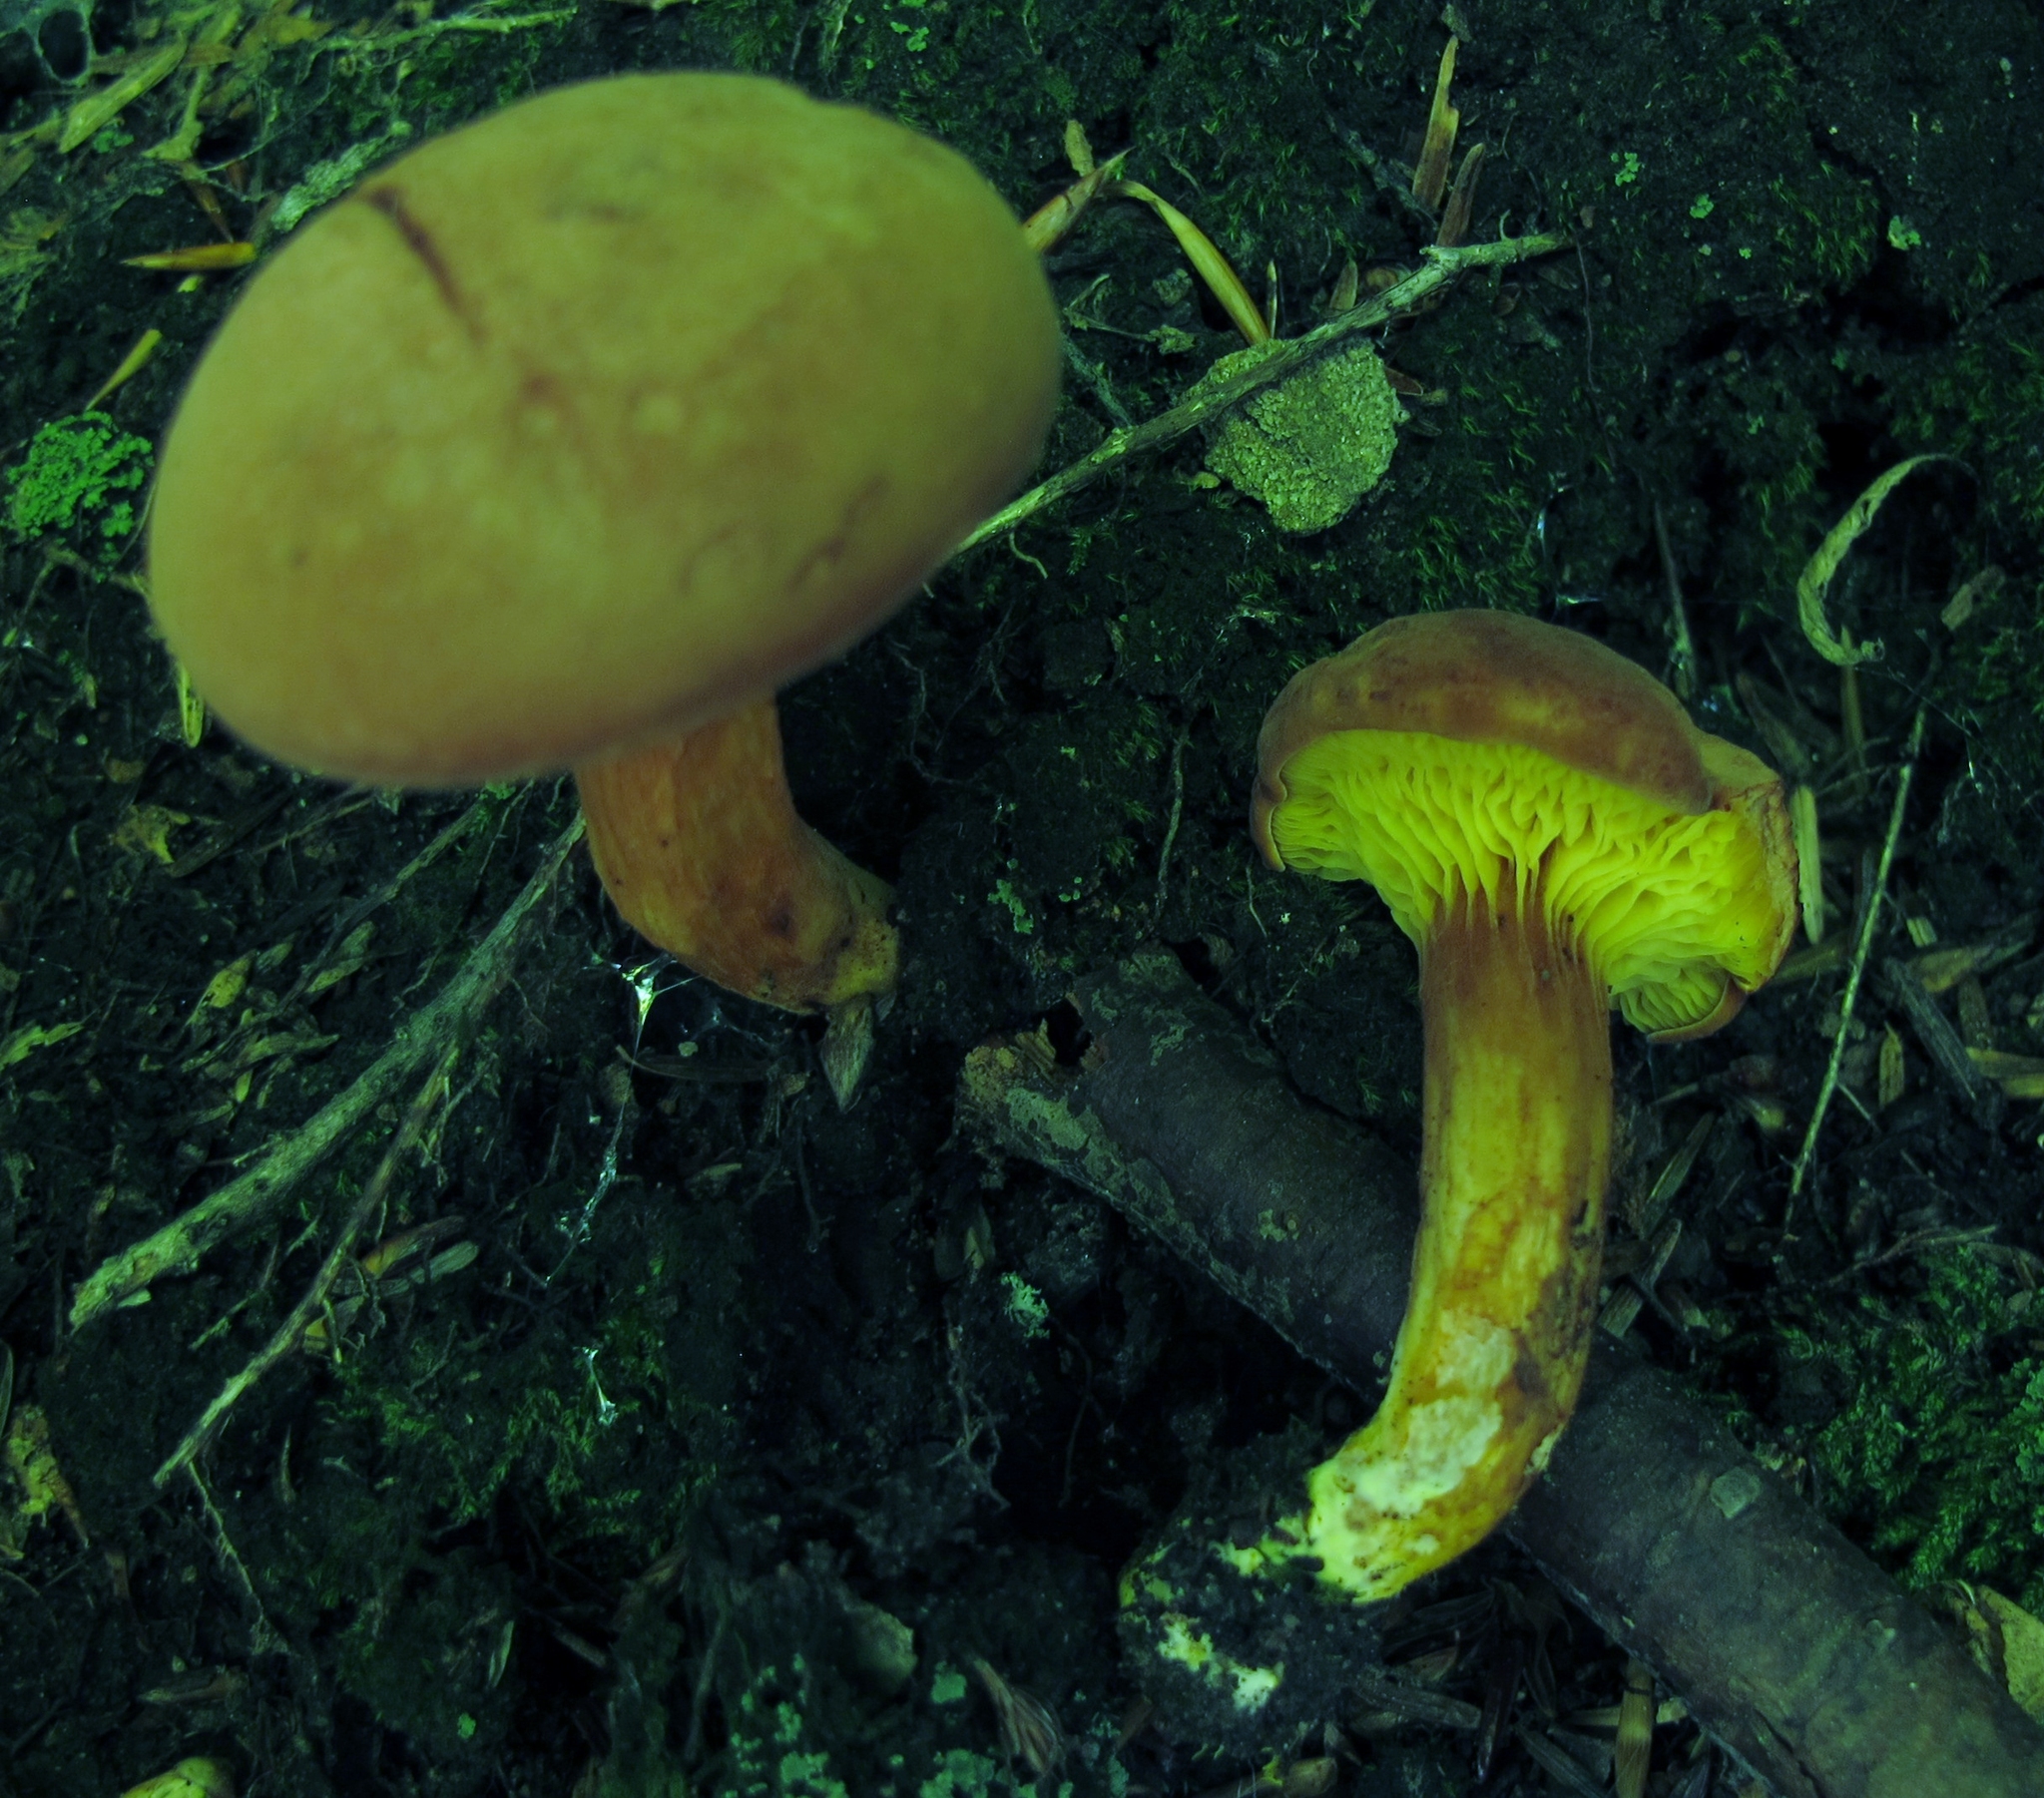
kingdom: Fungi
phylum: Basidiomycota
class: Agaricomycetes
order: Boletales
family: Boletaceae
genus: Phylloporus
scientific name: Phylloporus rhodoxanthus
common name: Golden gilled bolete
